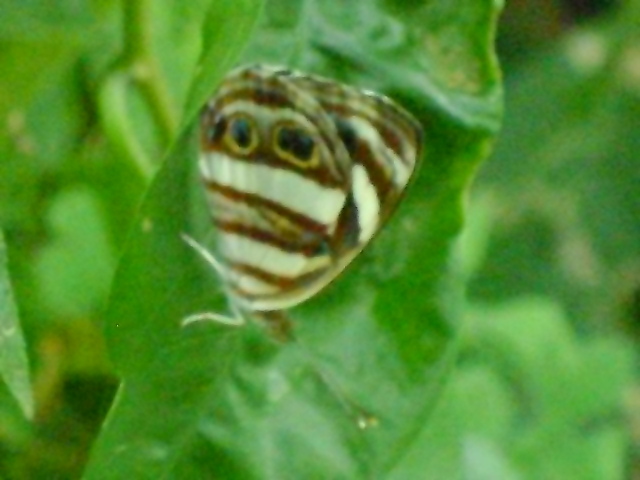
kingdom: Animalia
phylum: Arthropoda
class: Insecta
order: Lepidoptera
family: Nymphalidae
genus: Dynamine
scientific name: Dynamine mylitta
